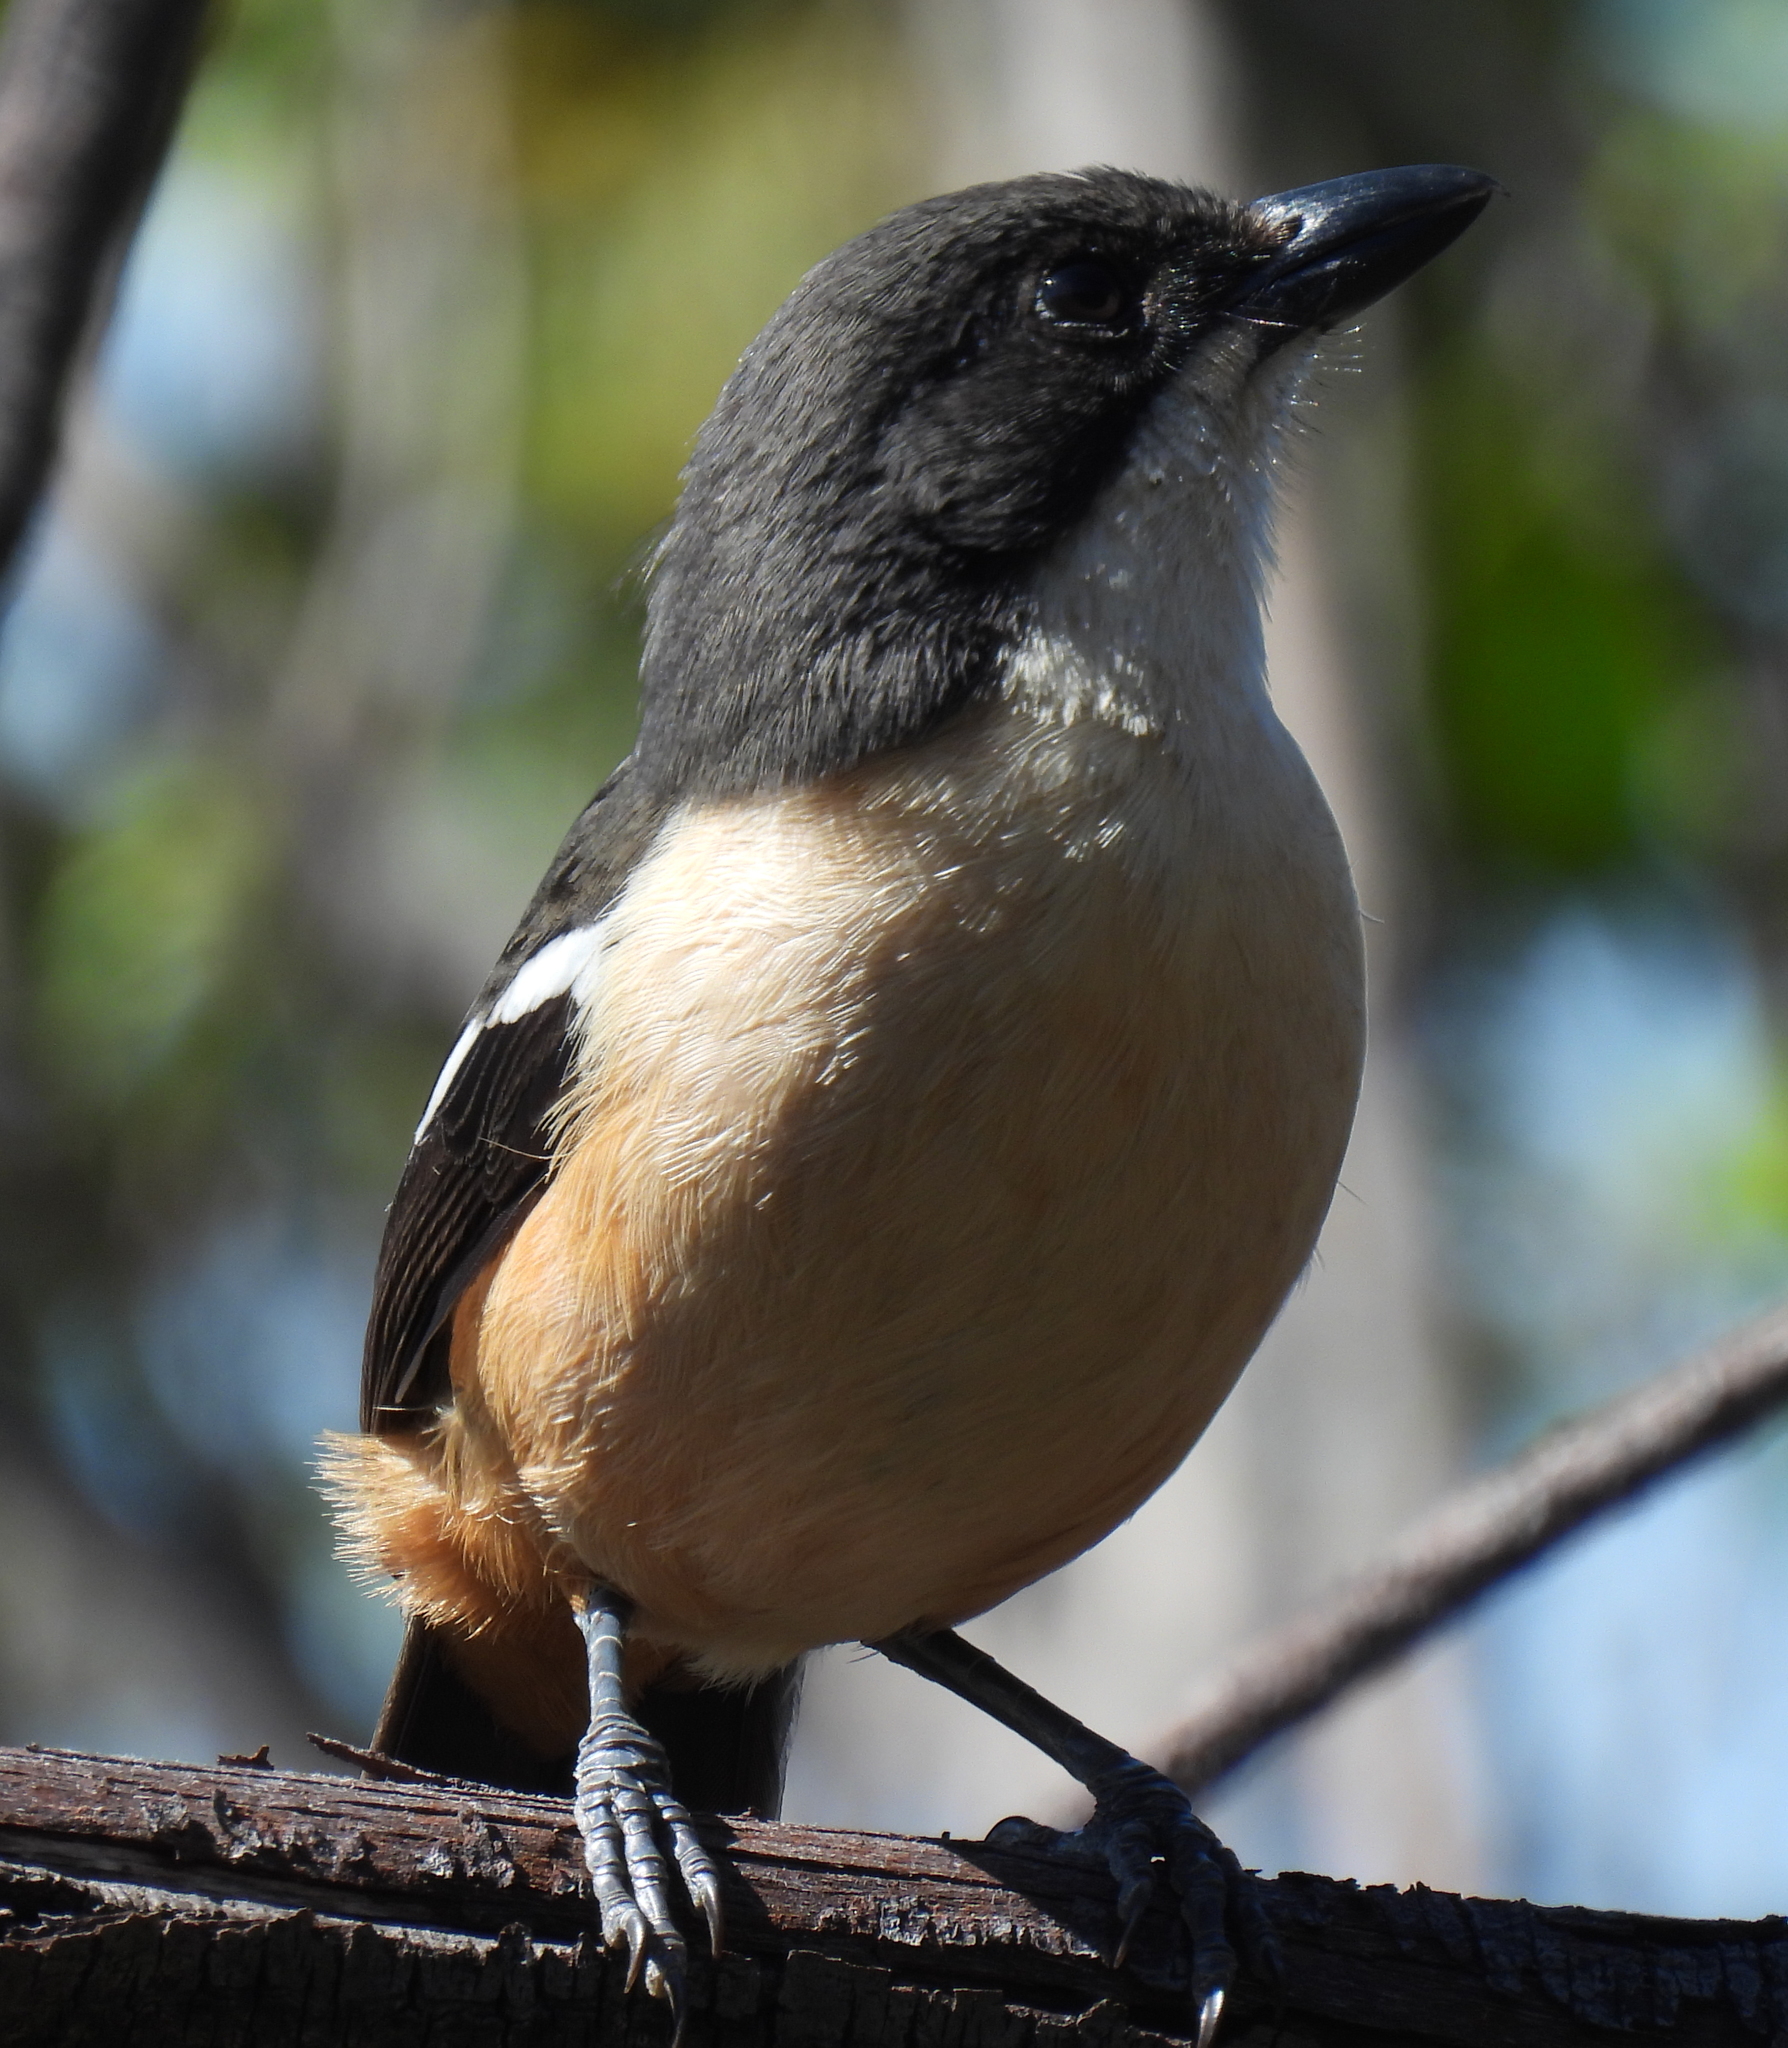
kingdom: Animalia
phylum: Chordata
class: Aves
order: Passeriformes
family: Malaconotidae
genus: Laniarius
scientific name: Laniarius ferrugineus
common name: Southern boubou
